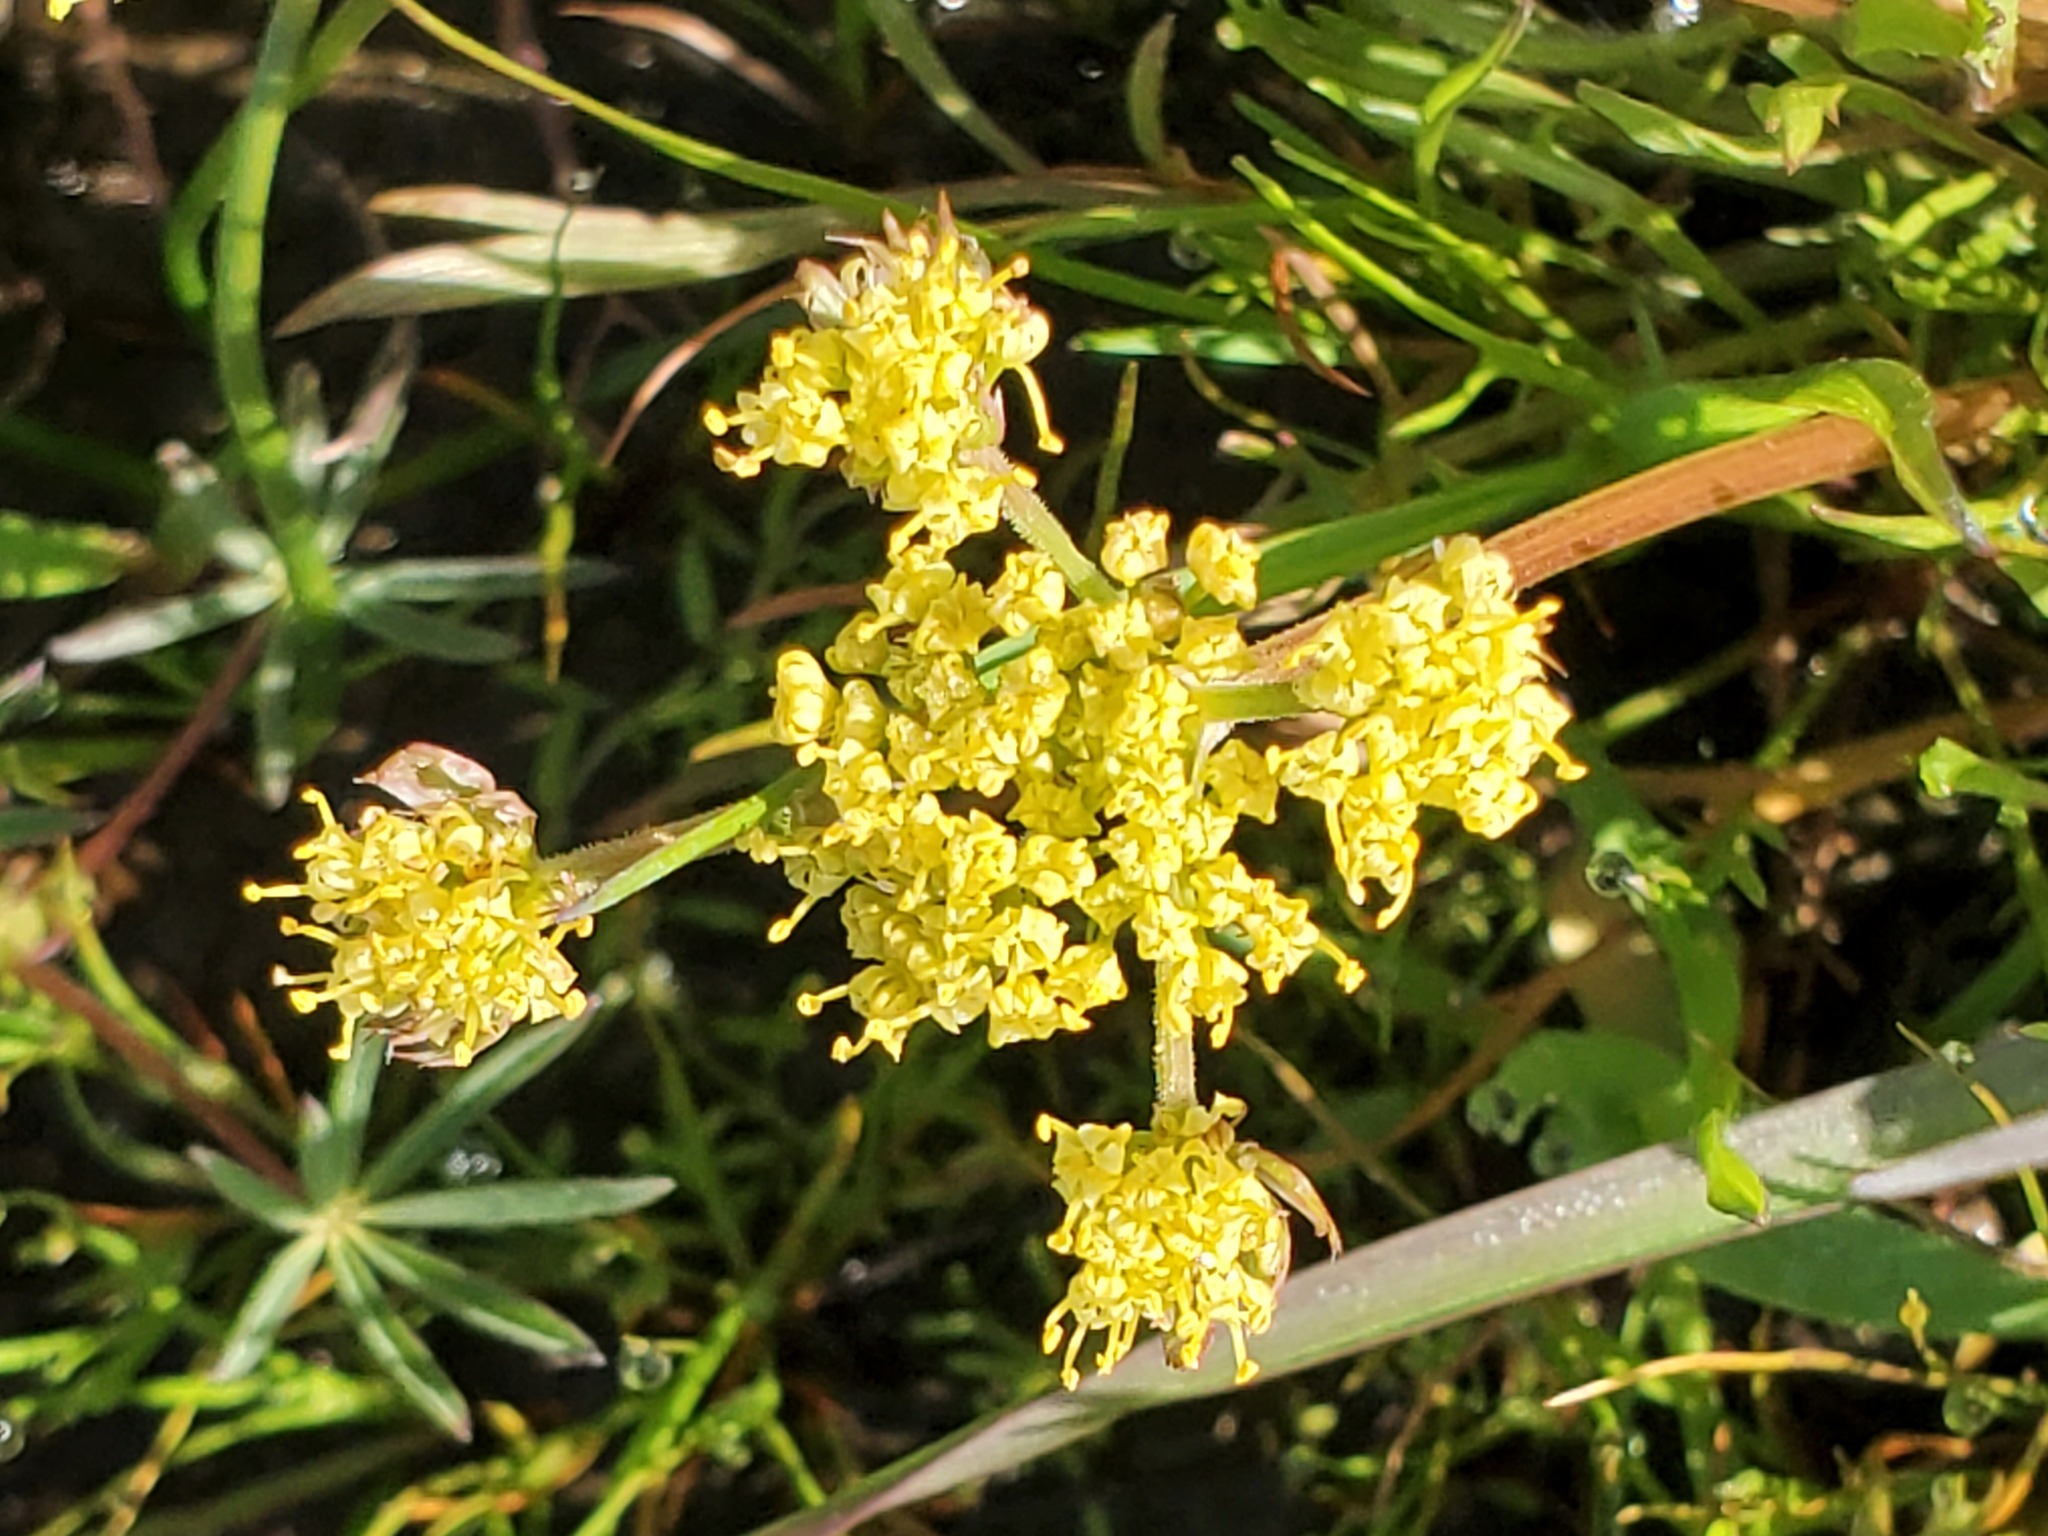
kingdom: Plantae
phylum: Tracheophyta
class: Magnoliopsida
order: Apiales
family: Apiaceae
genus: Lomatium
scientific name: Lomatium caruifolium
